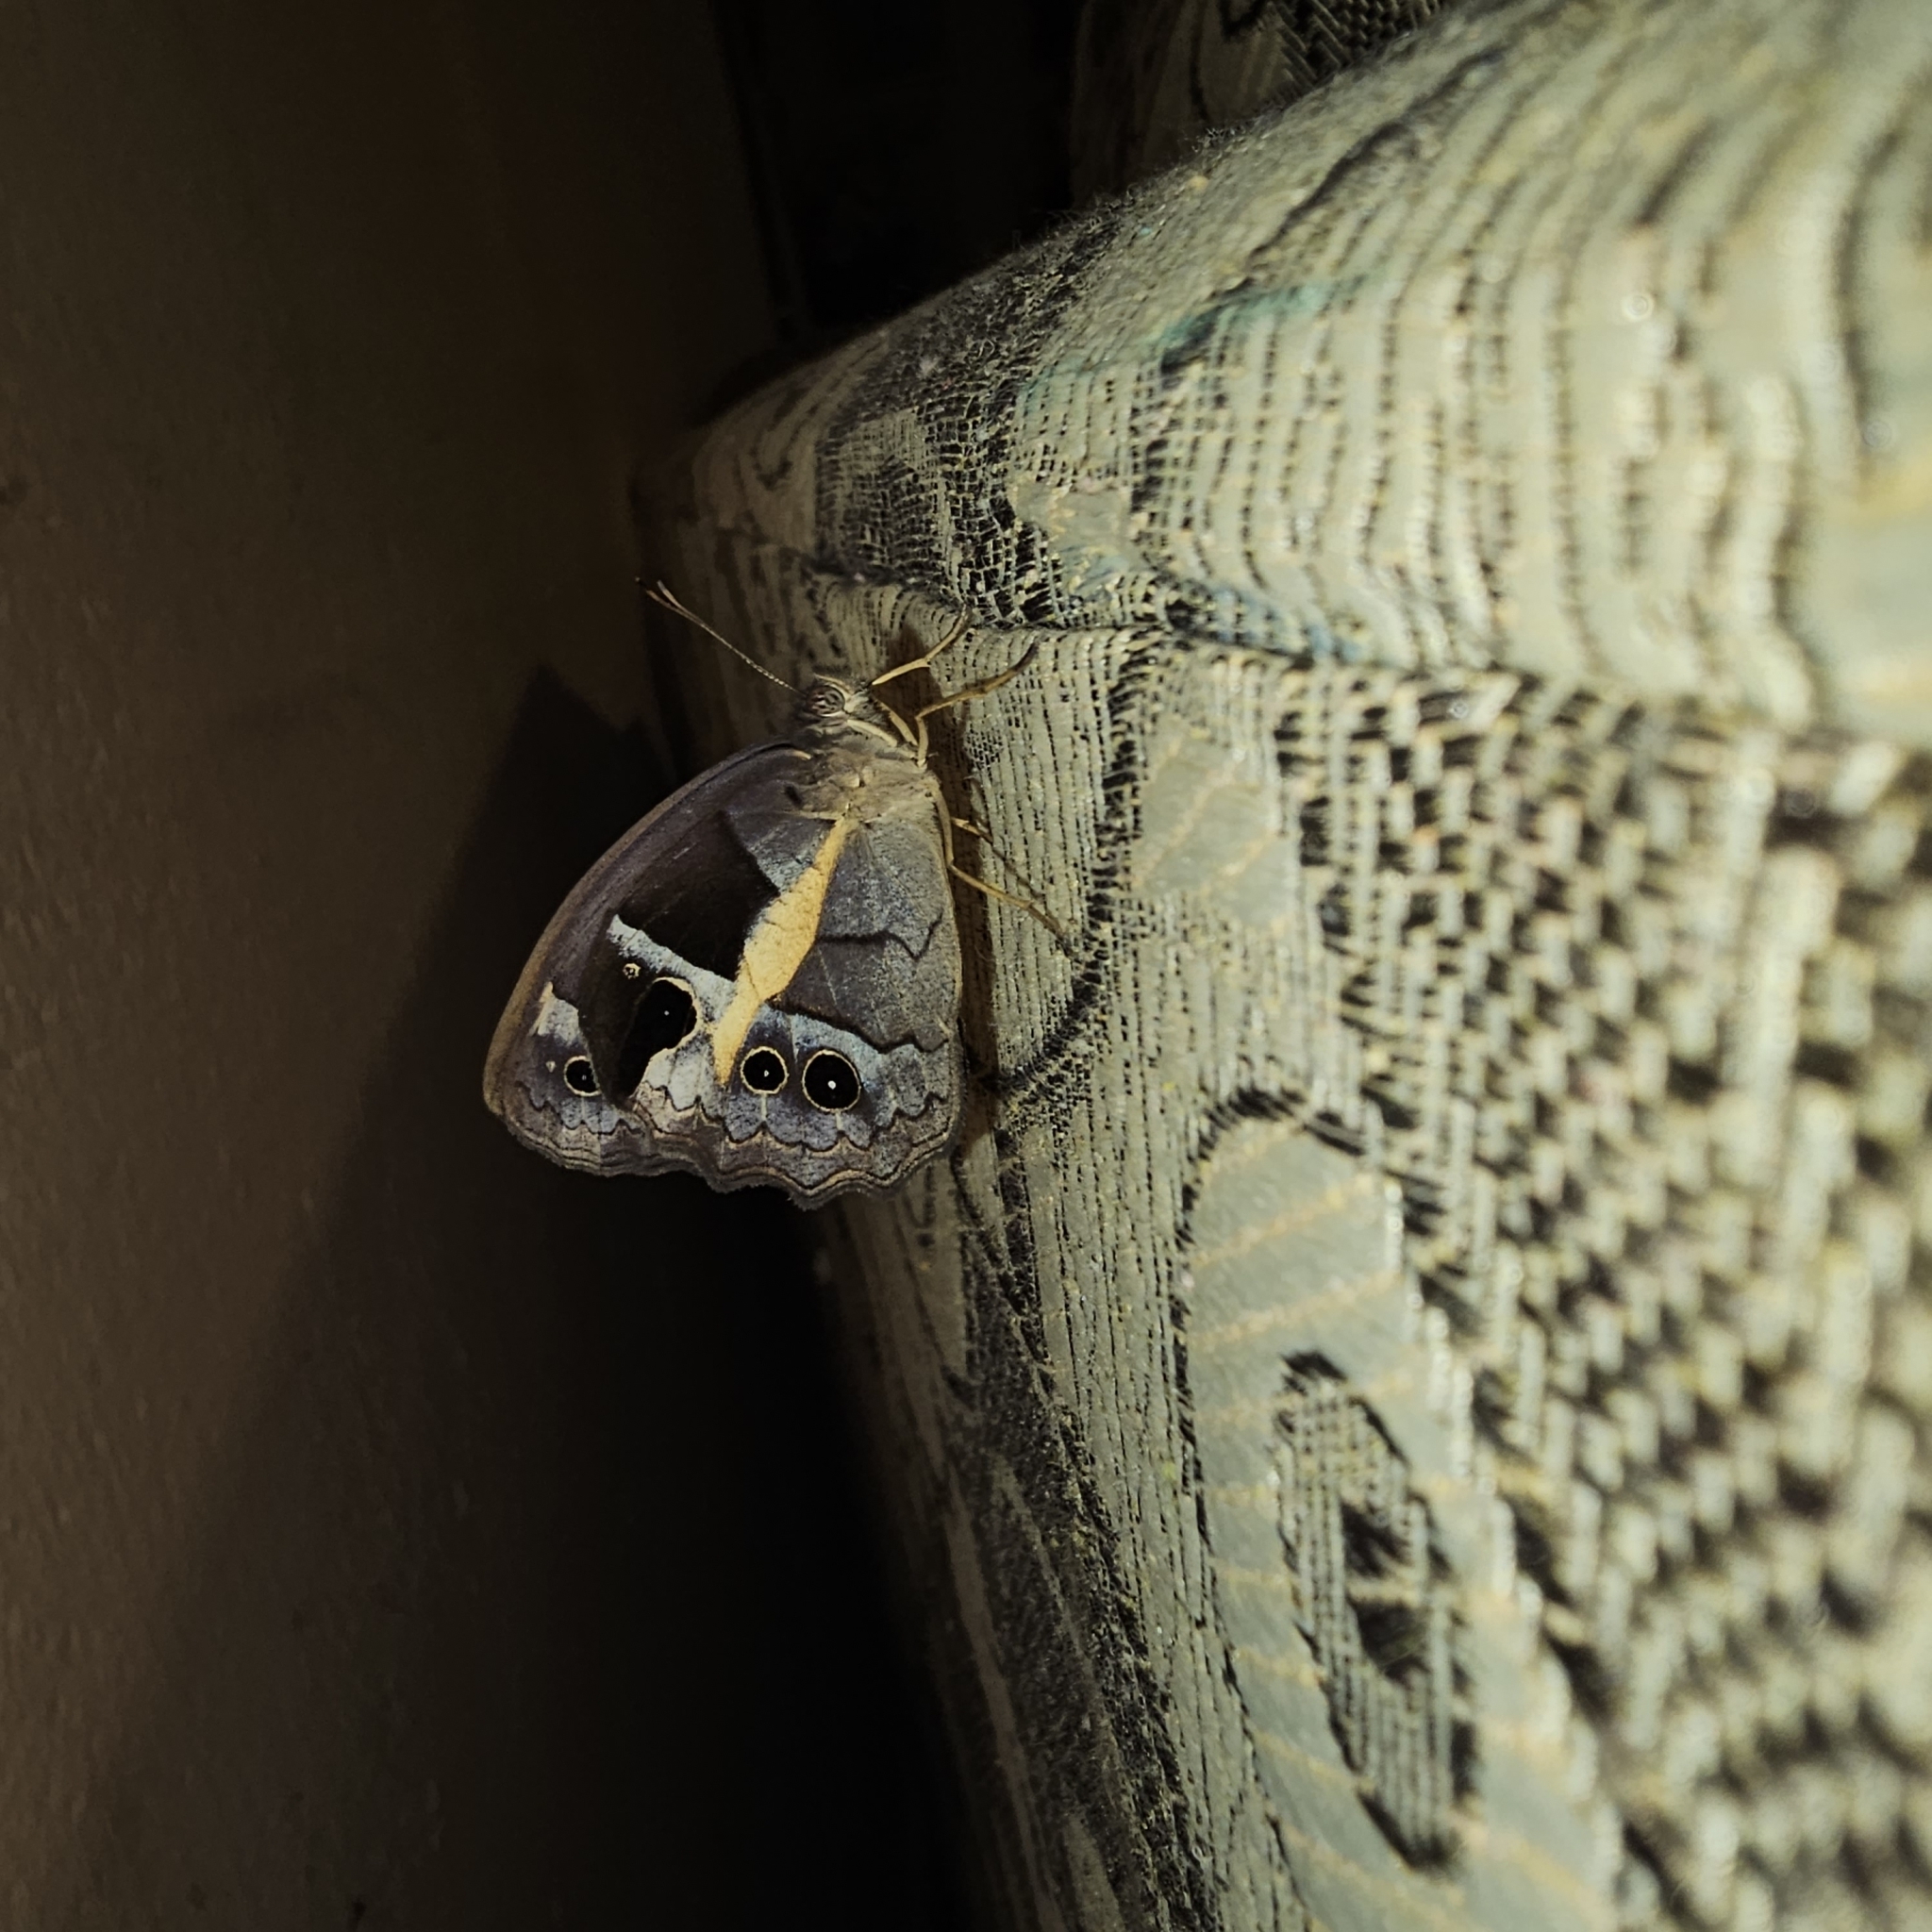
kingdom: Animalia
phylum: Arthropoda
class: Insecta
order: Lepidoptera
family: Nymphalidae
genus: Posttaygetis
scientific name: Posttaygetis penelea
